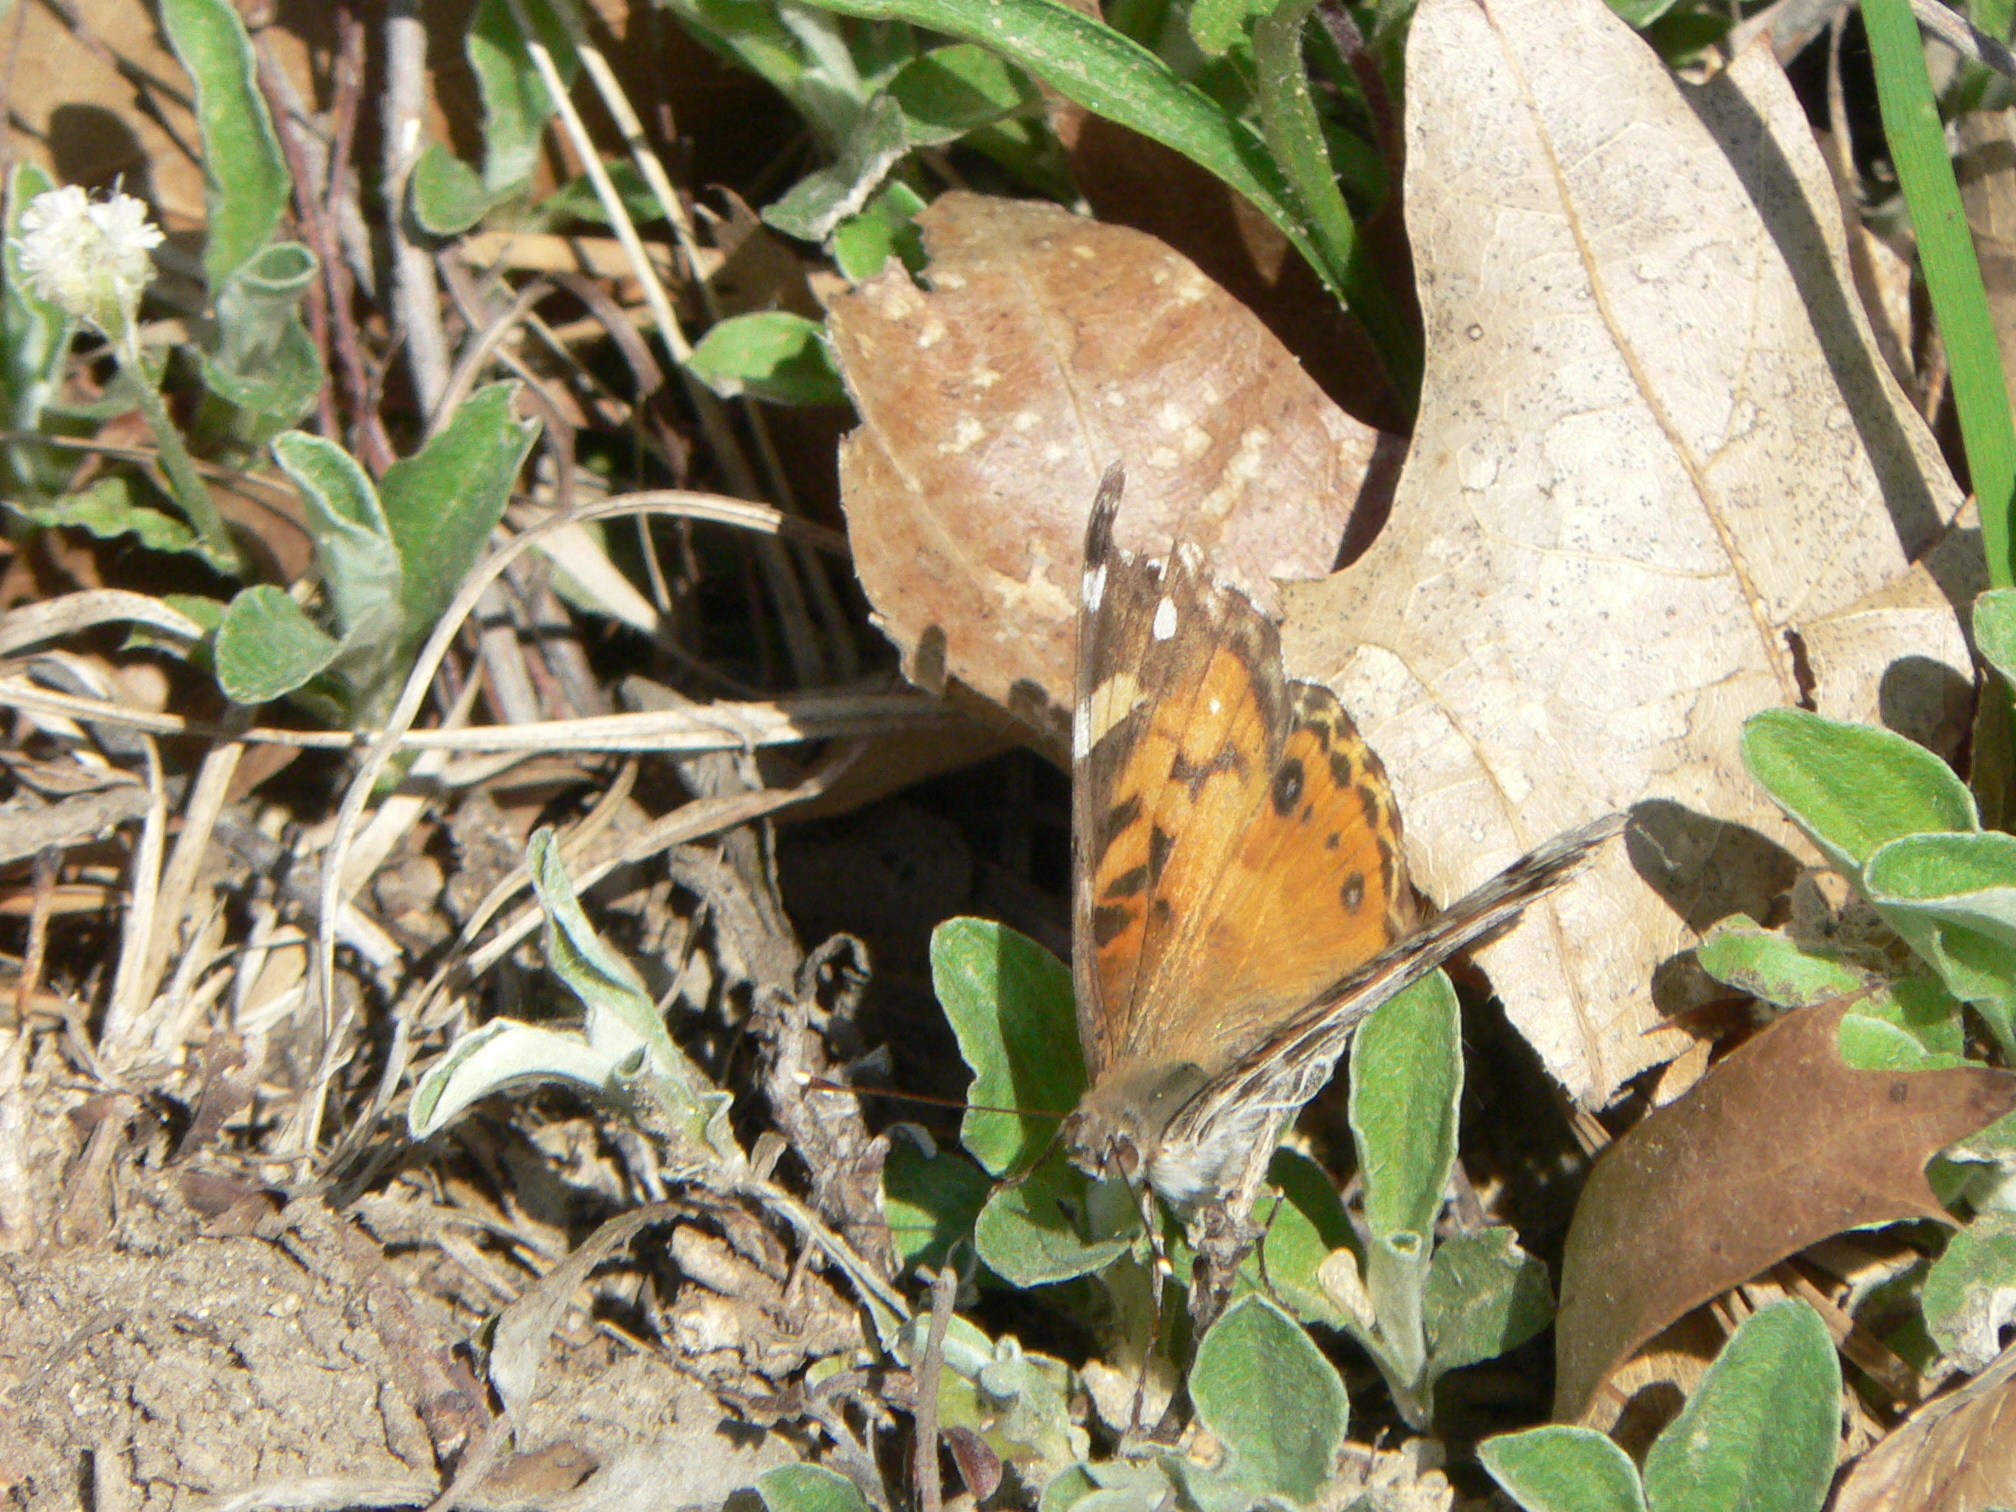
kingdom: Animalia
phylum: Arthropoda
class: Insecta
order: Lepidoptera
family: Nymphalidae
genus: Vanessa
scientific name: Vanessa virginiensis
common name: American lady
